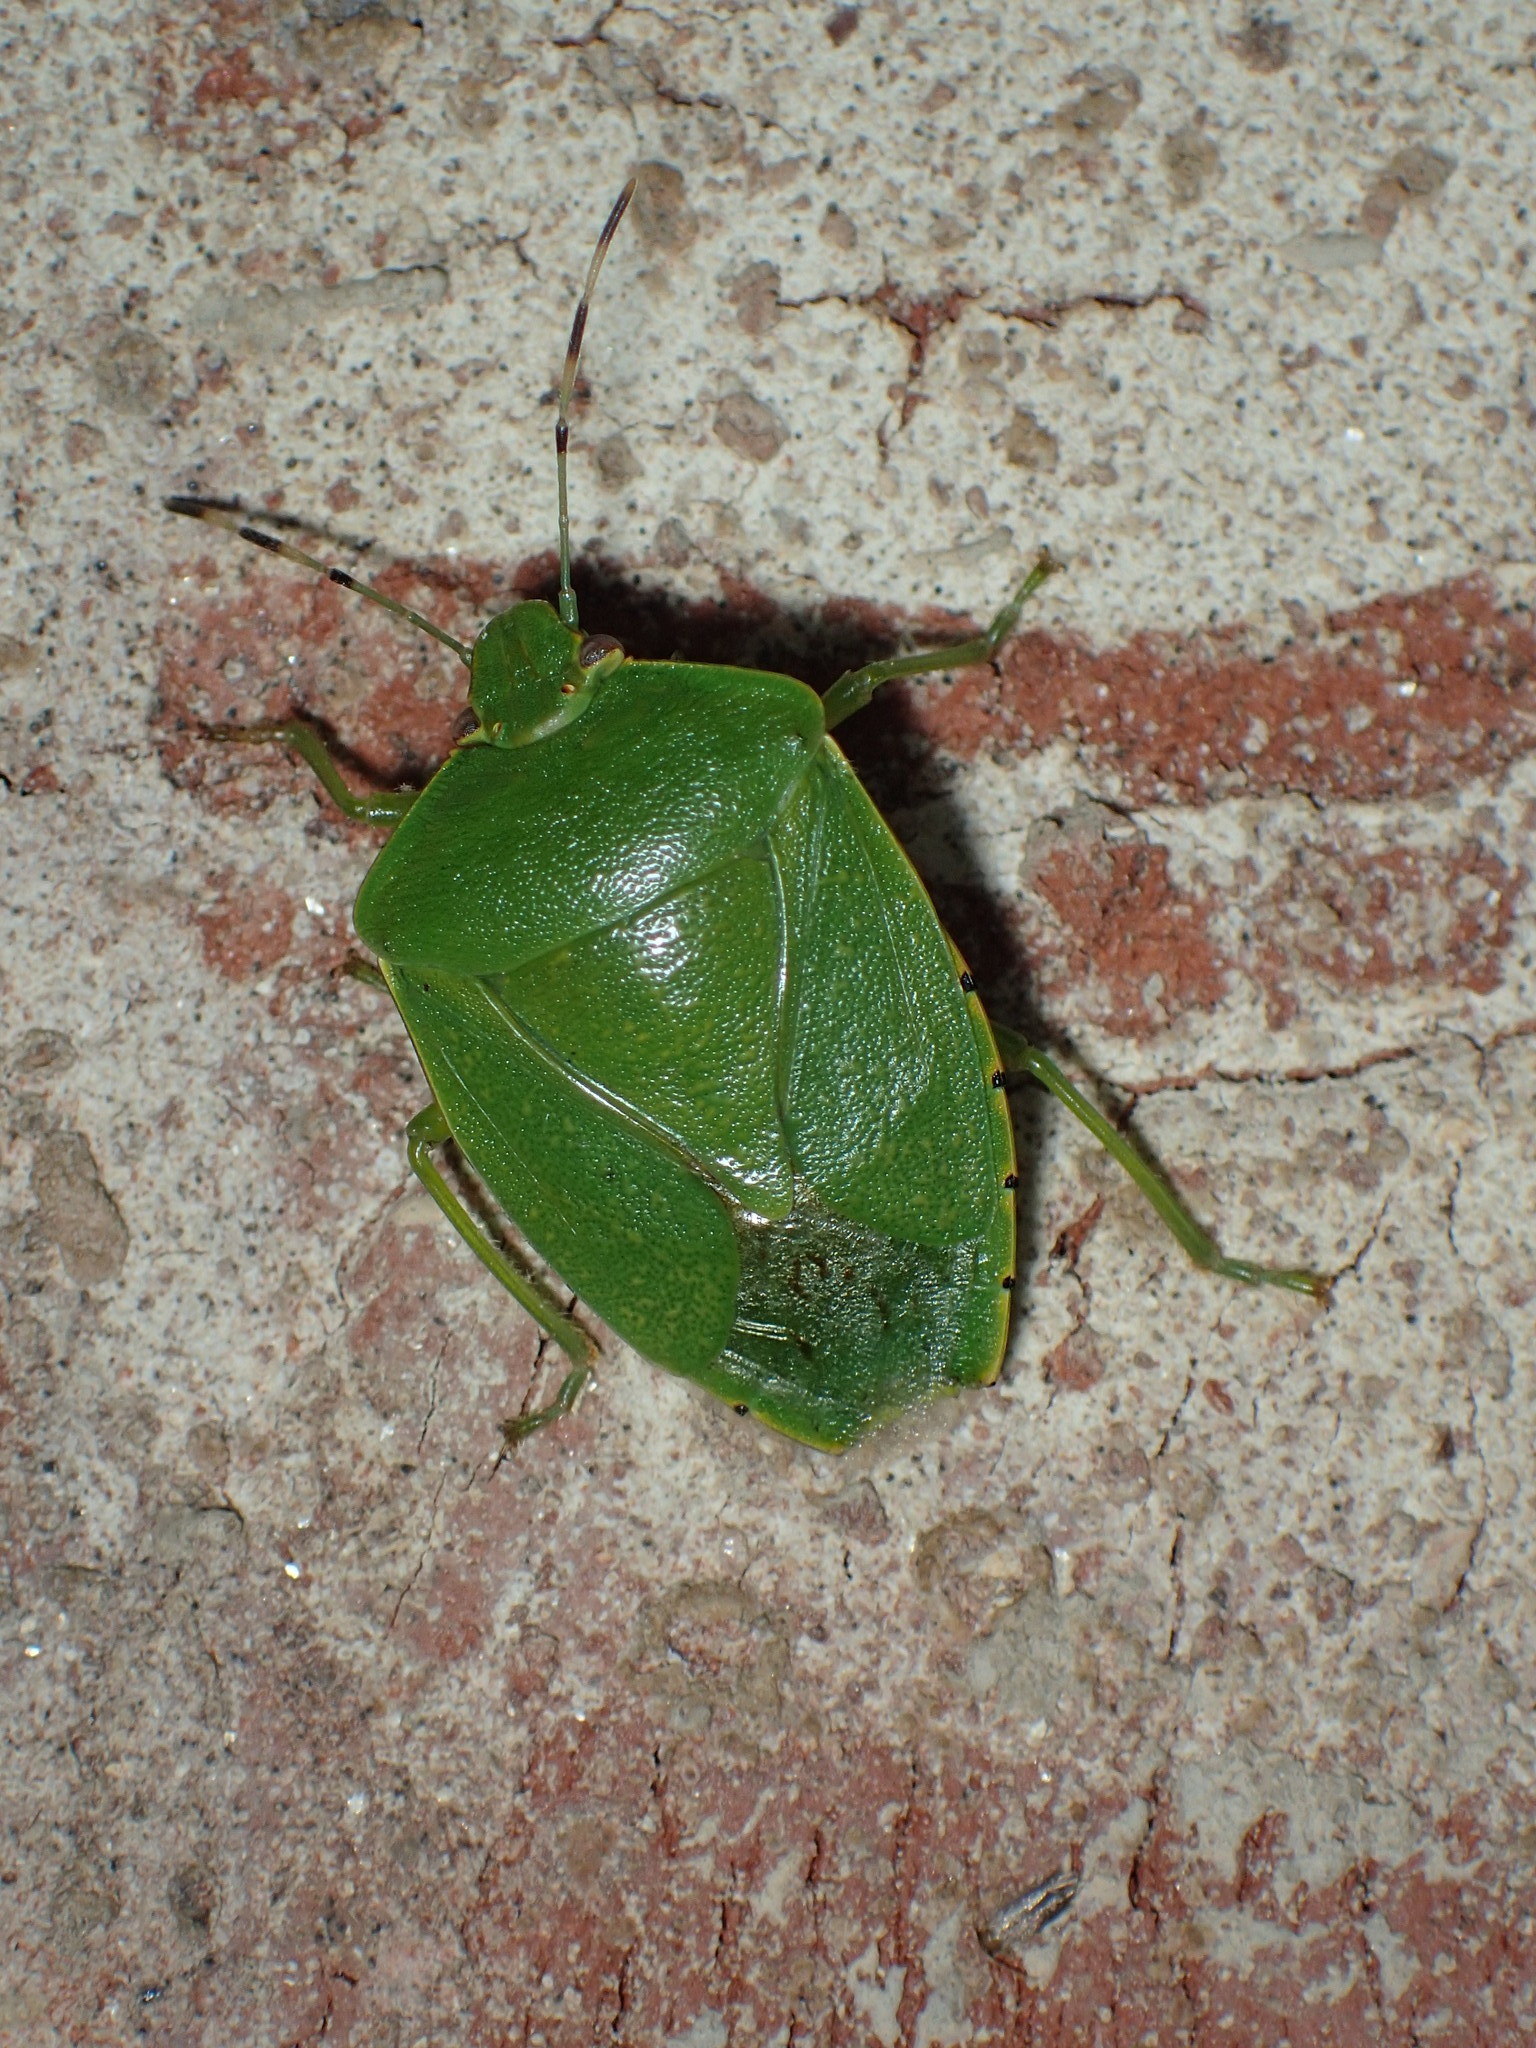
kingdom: Animalia
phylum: Arthropoda
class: Insecta
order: Hemiptera
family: Pentatomidae
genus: Chinavia
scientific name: Chinavia hilaris
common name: Green stink bug
